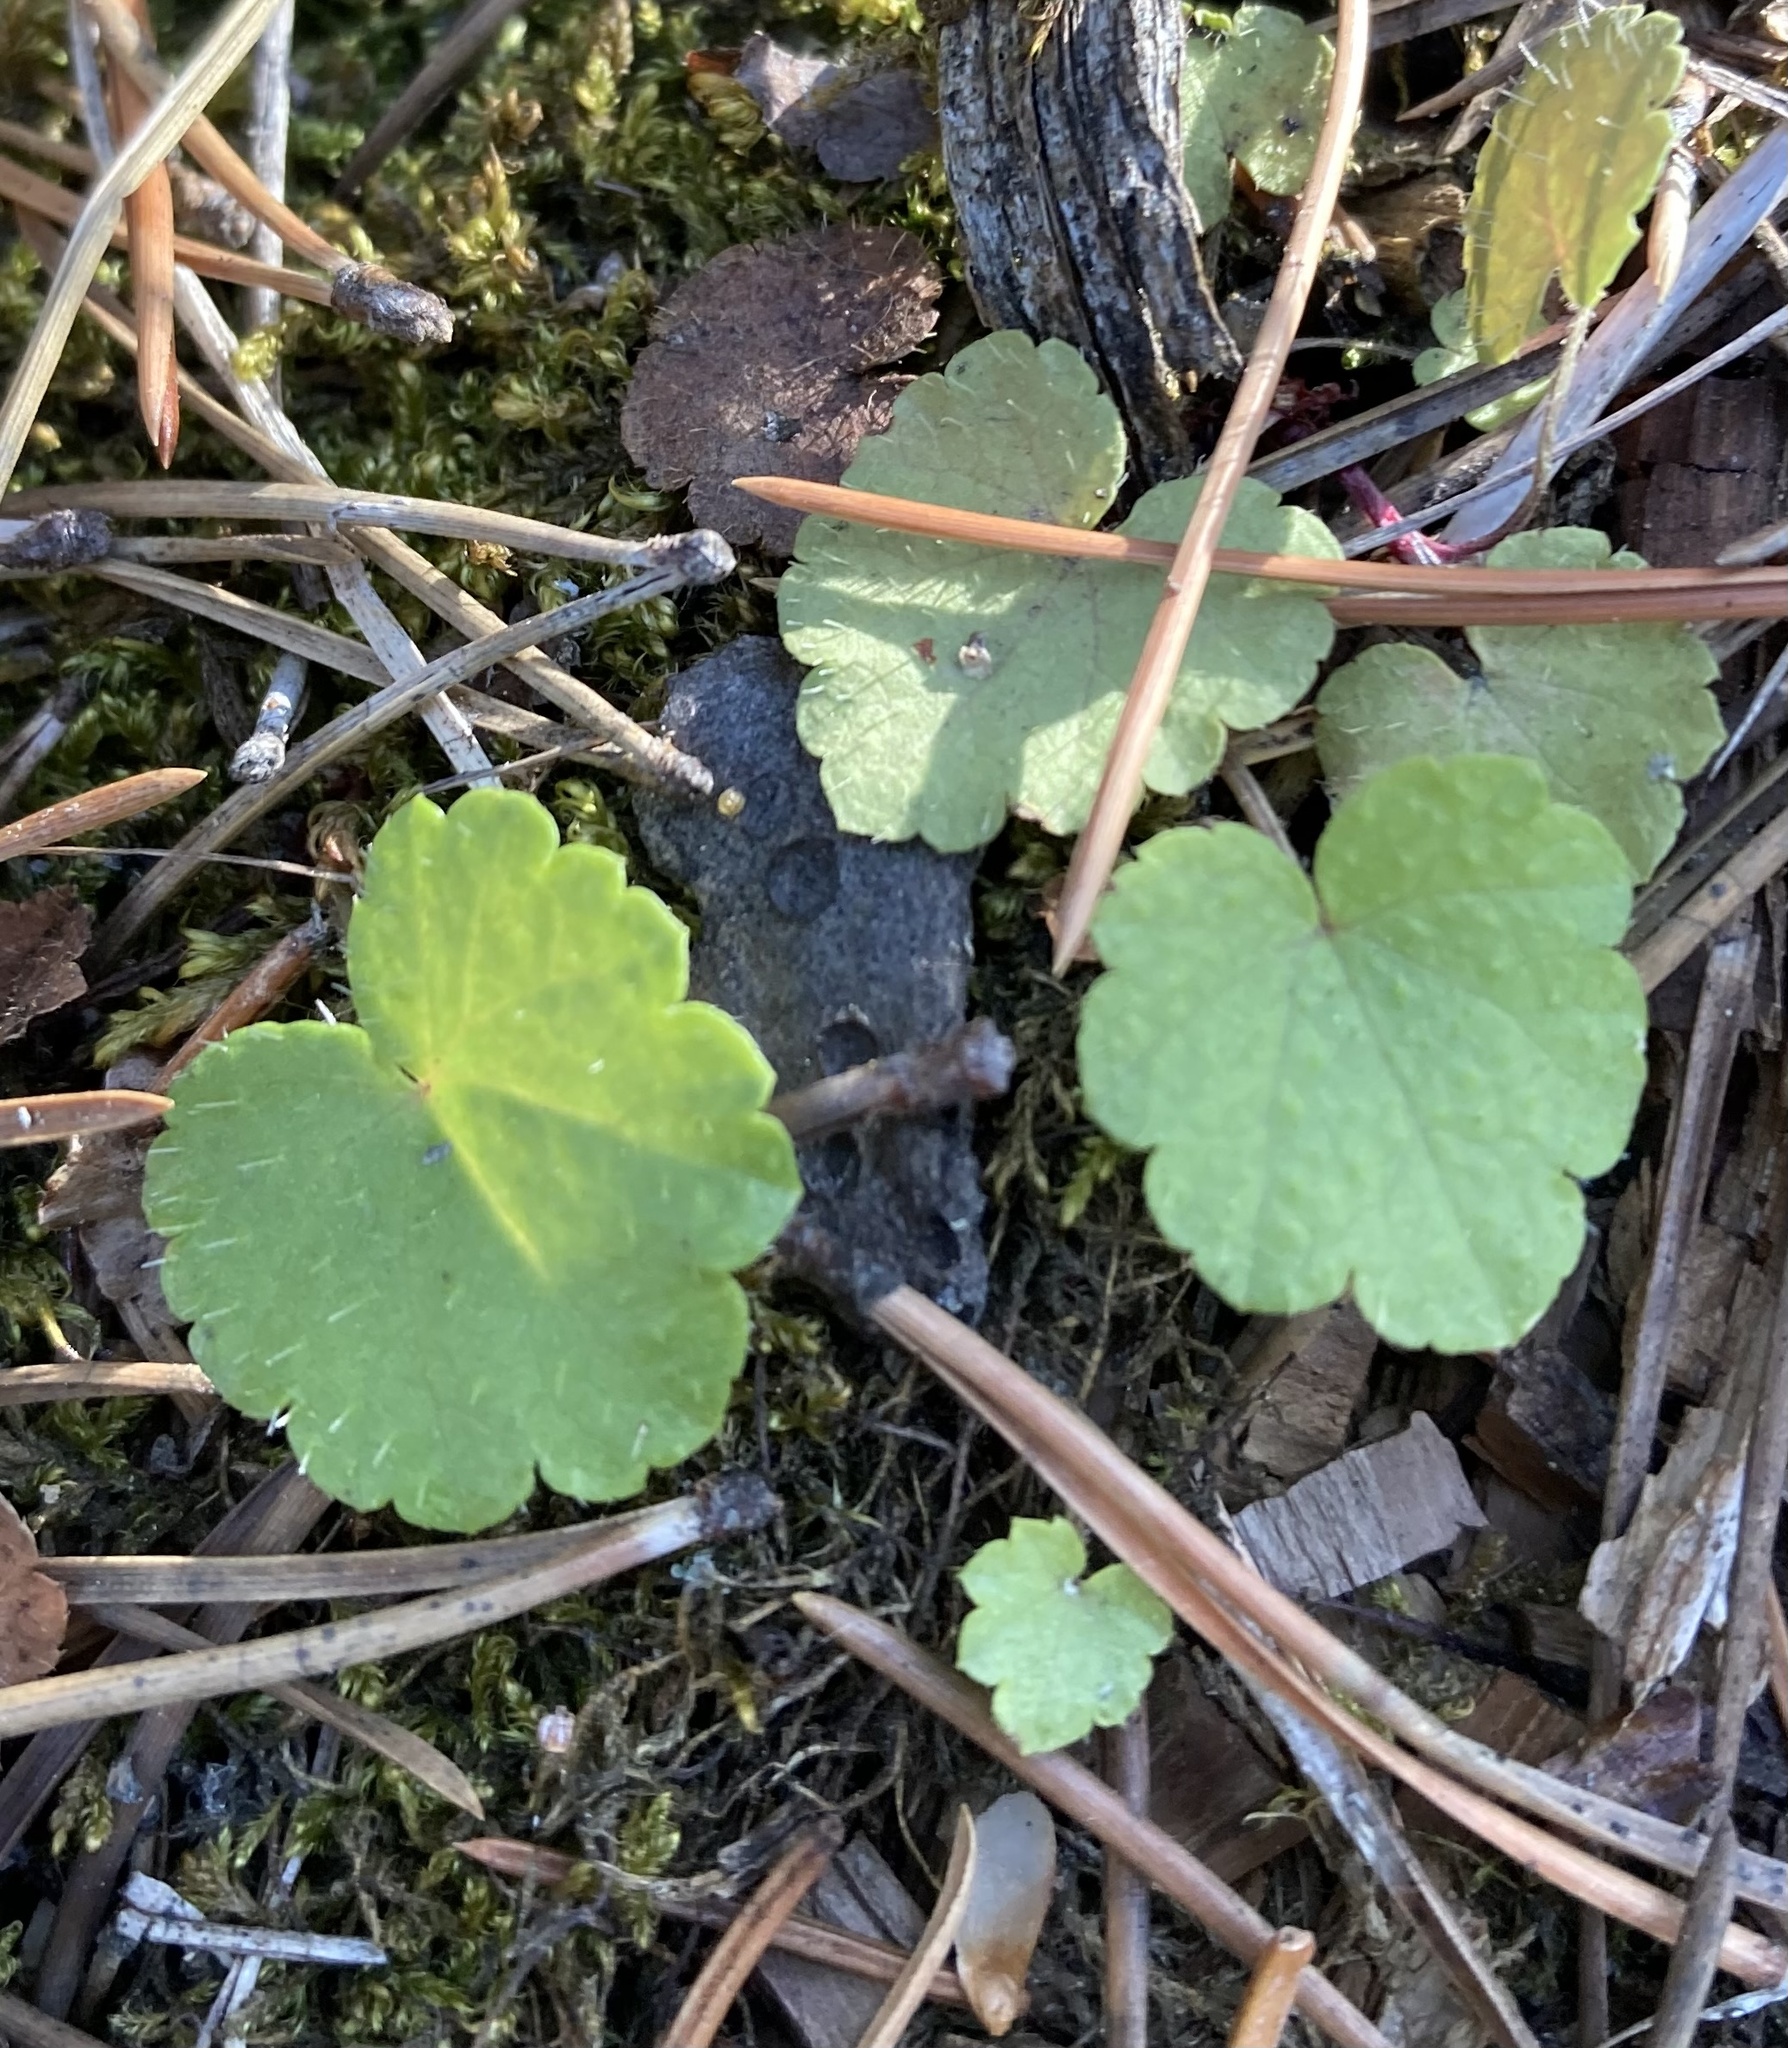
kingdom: Plantae
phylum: Tracheophyta
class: Magnoliopsida
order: Saxifragales
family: Saxifragaceae
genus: Mitella
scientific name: Mitella nuda
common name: Bare-stemmed bishop's-cap
